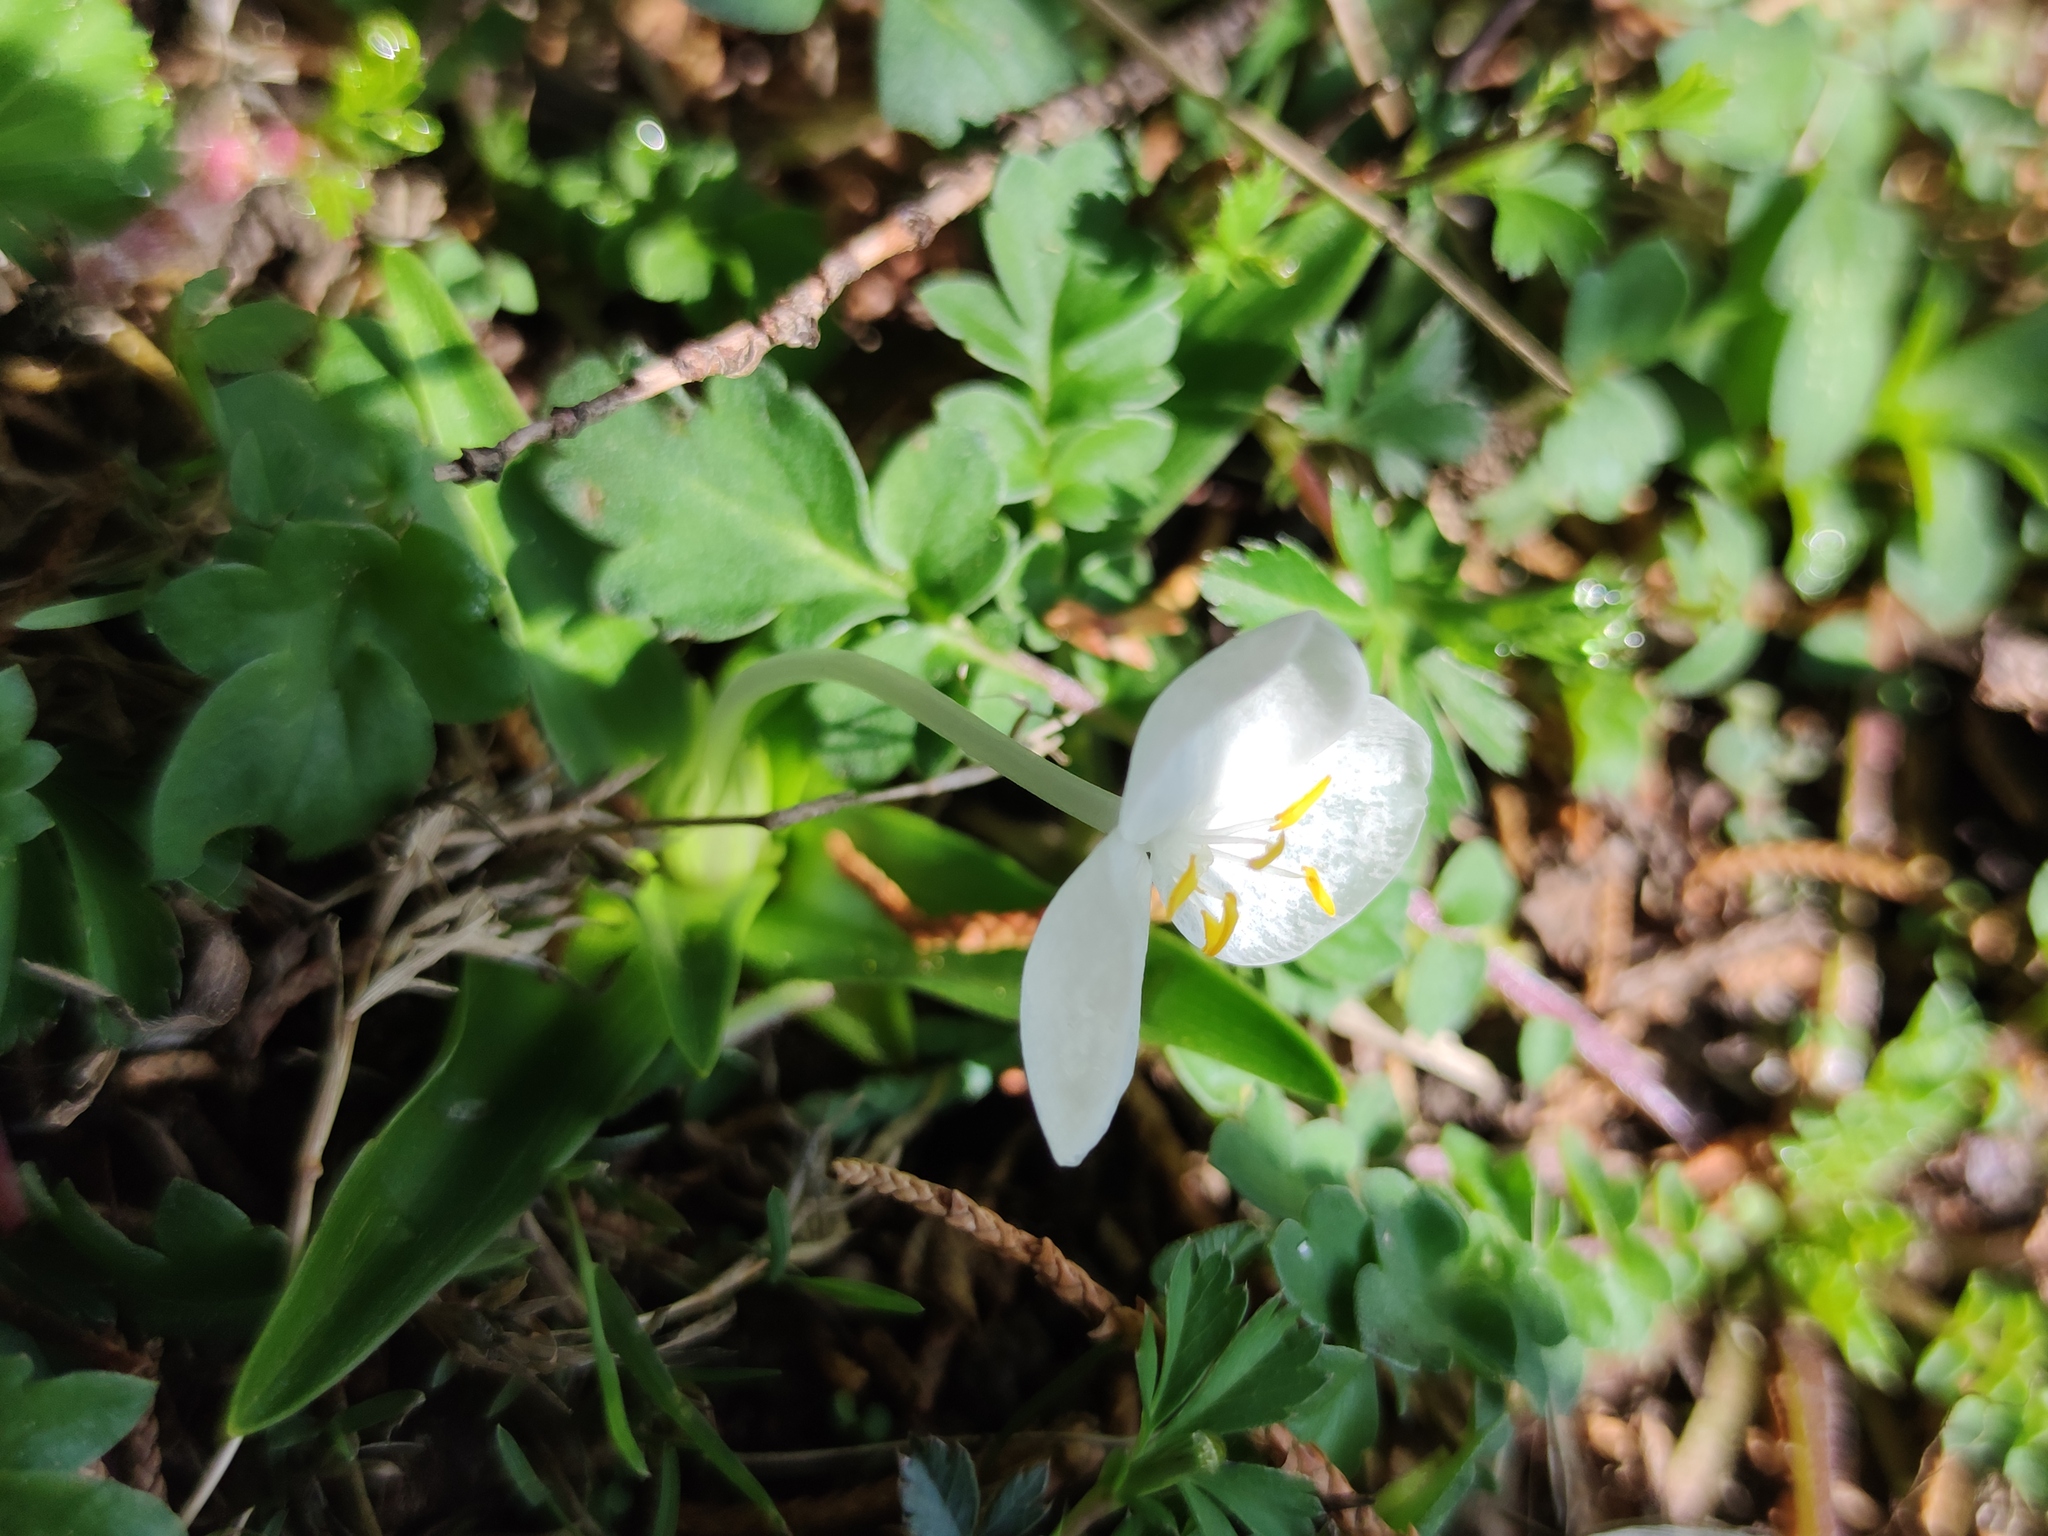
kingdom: Plantae
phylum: Tracheophyta
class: Liliopsida
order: Commelinales
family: Commelinaceae
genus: Weldenia
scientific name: Weldenia candida
